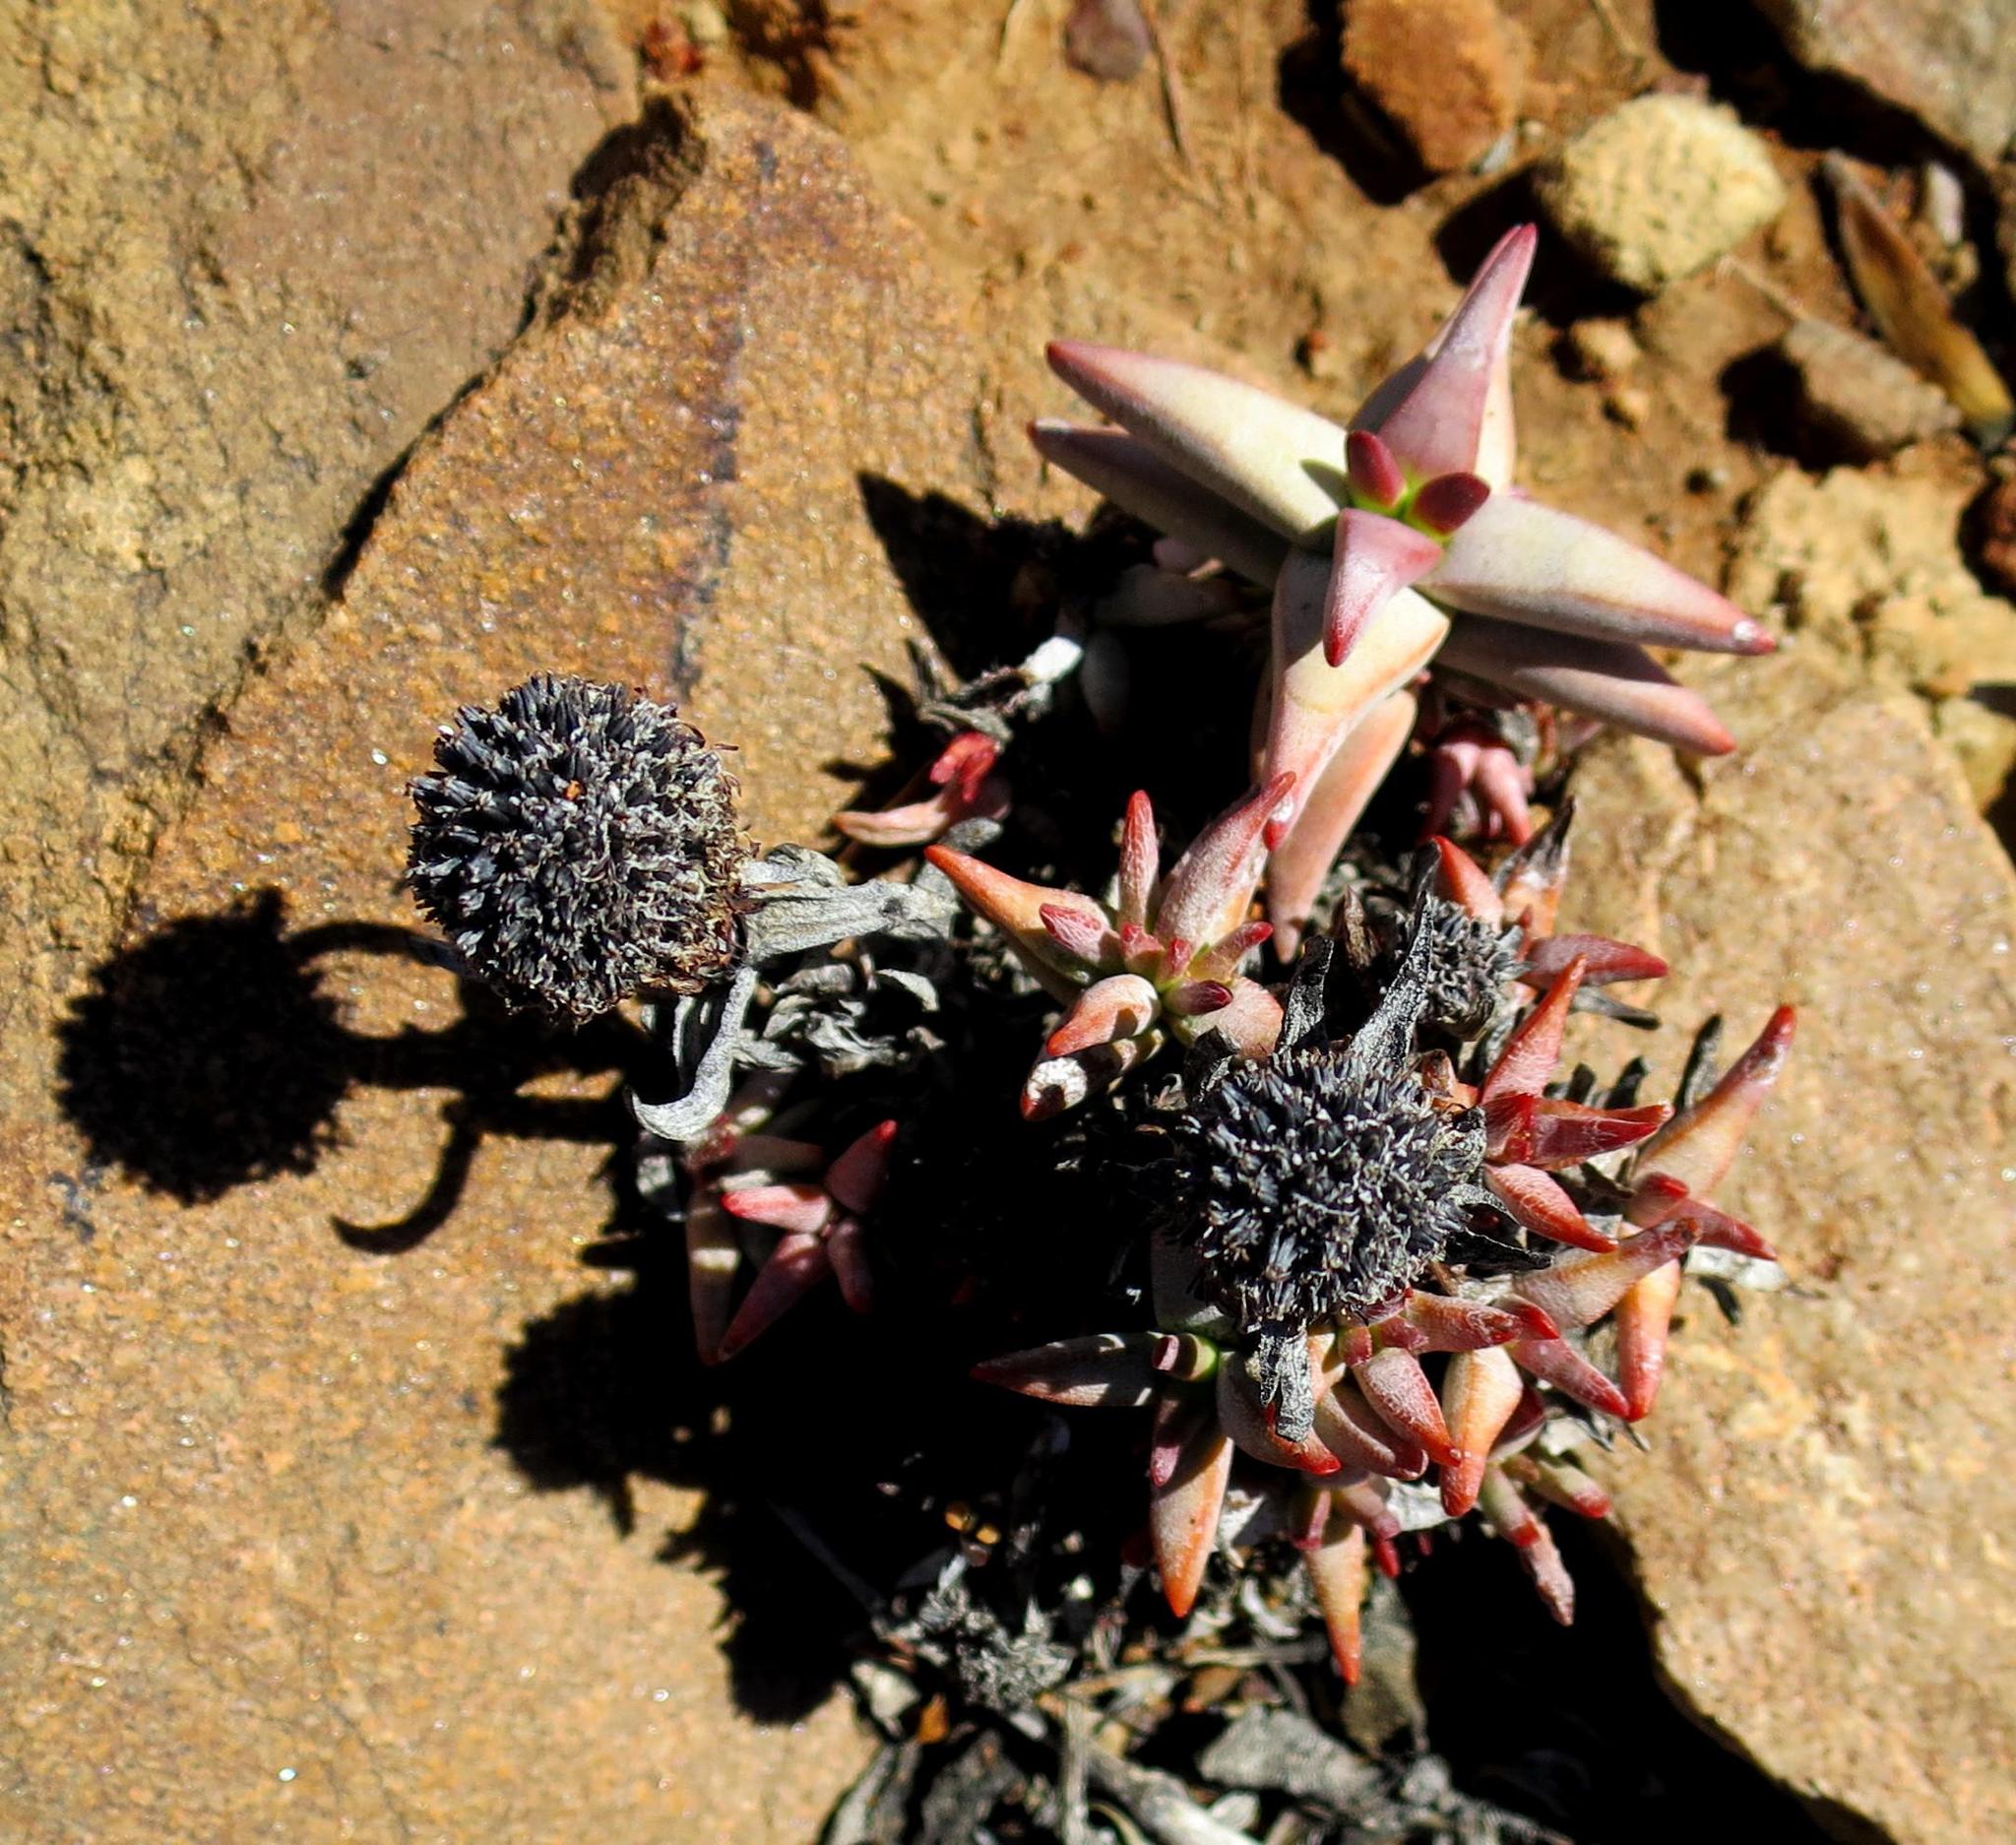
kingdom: Plantae
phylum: Tracheophyta
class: Magnoliopsida
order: Saxifragales
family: Crassulaceae
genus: Crassula
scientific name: Crassula congesta
